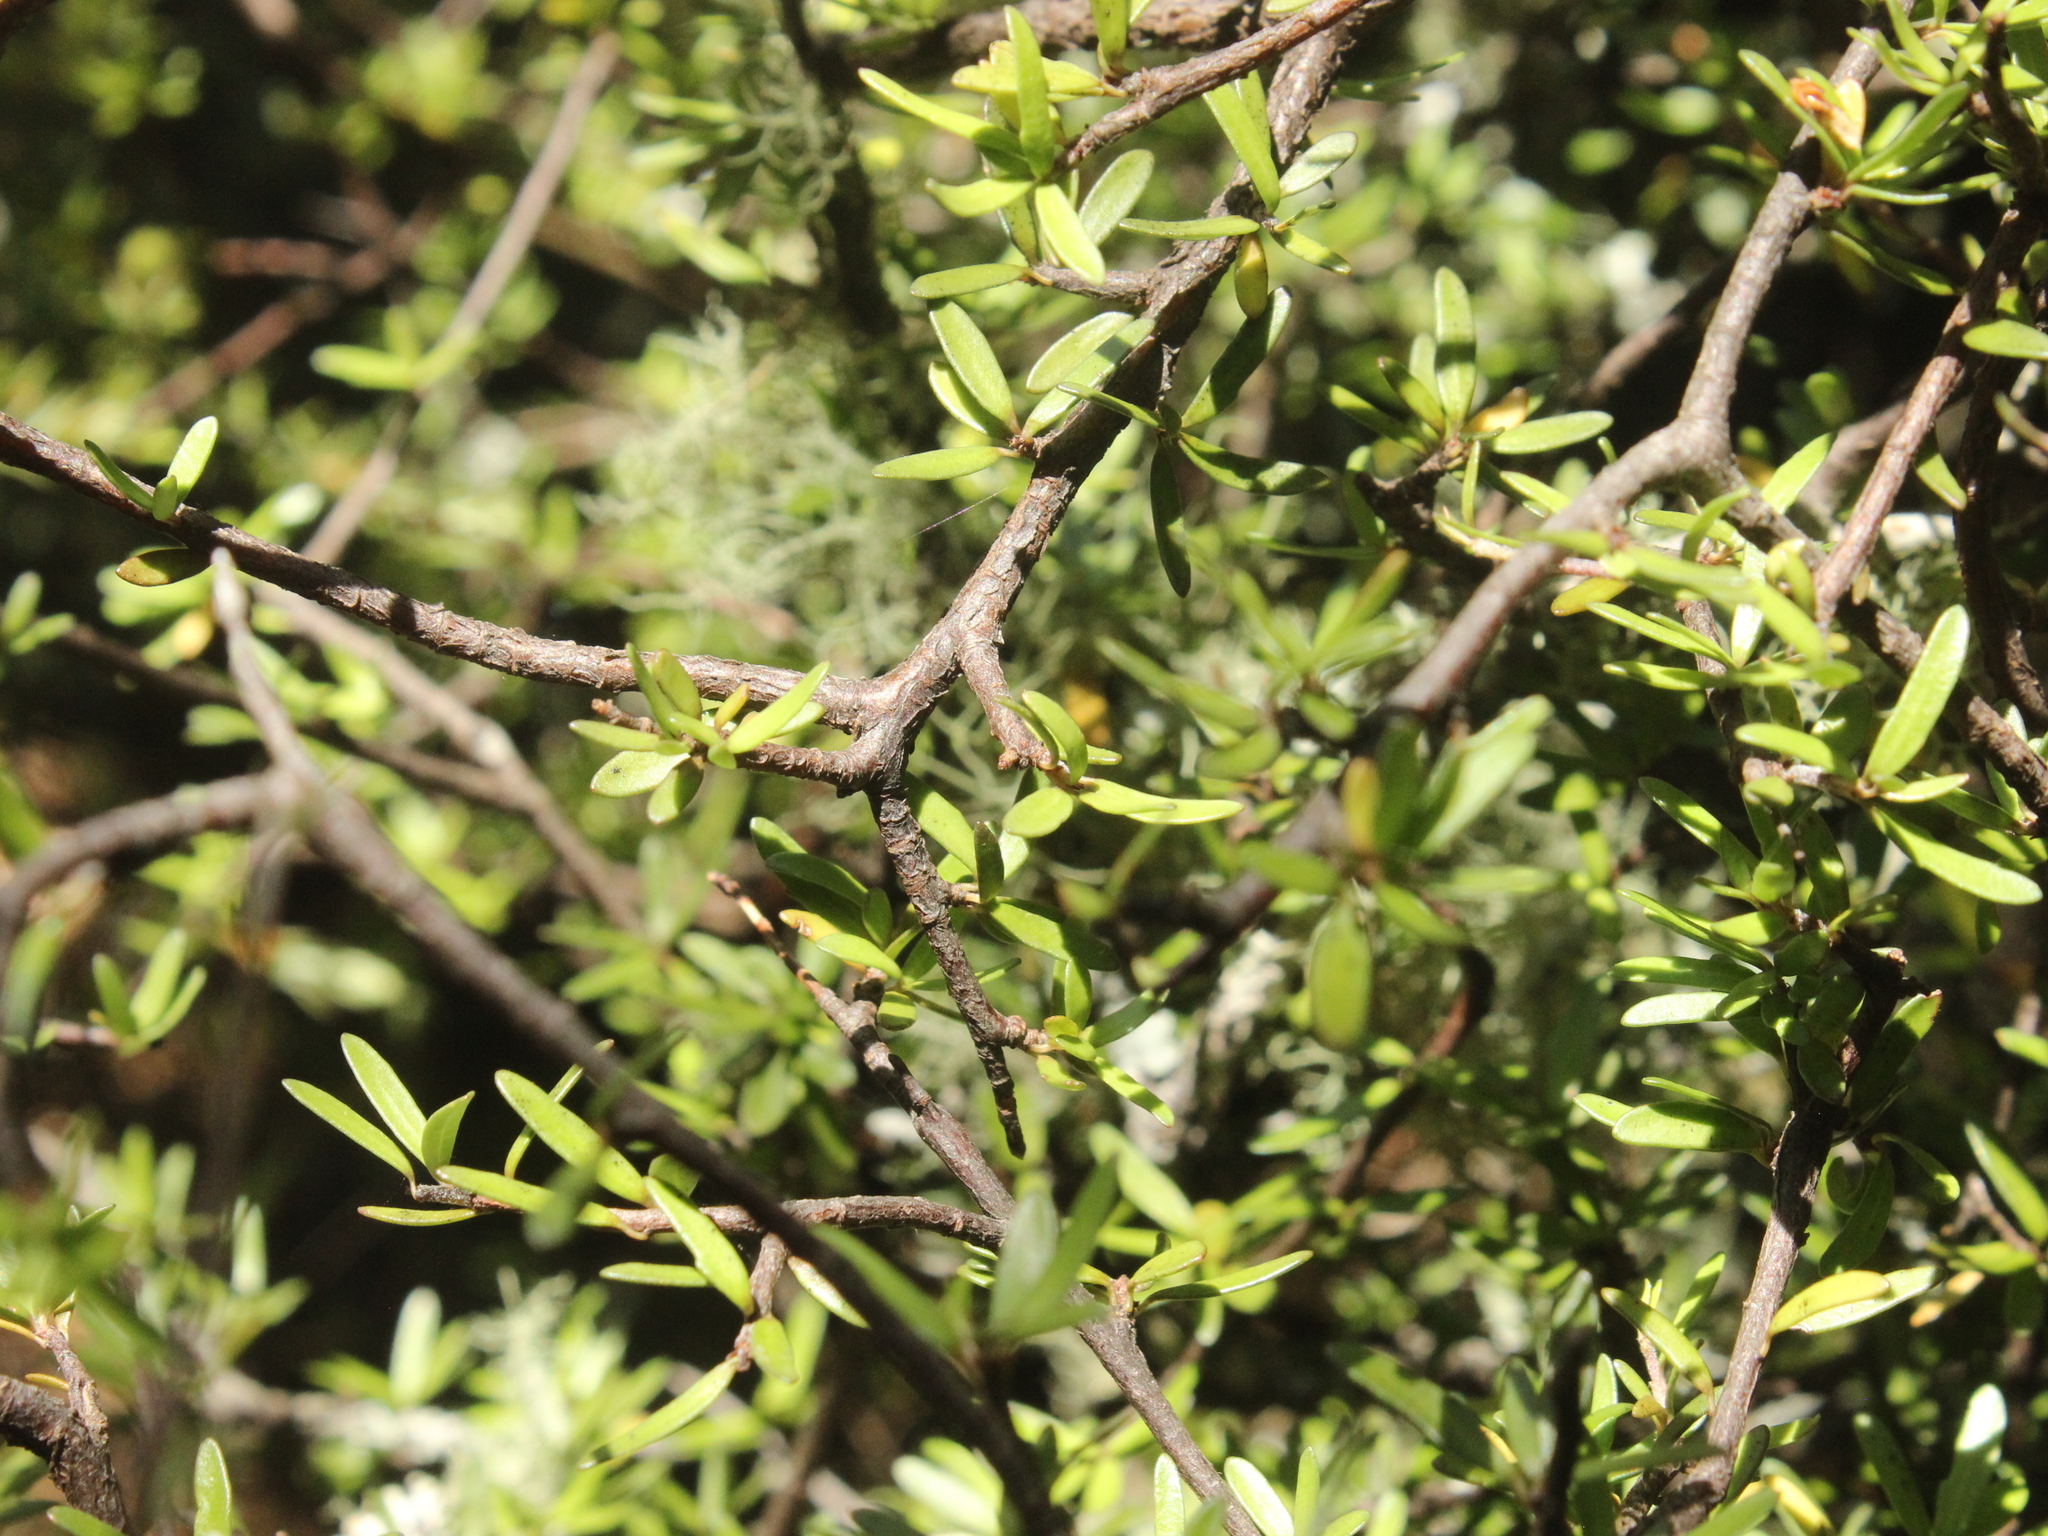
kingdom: Plantae
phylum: Tracheophyta
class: Magnoliopsida
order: Apiales
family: Pittosporaceae
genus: Pittosporum
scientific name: Pittosporum divaricatum
